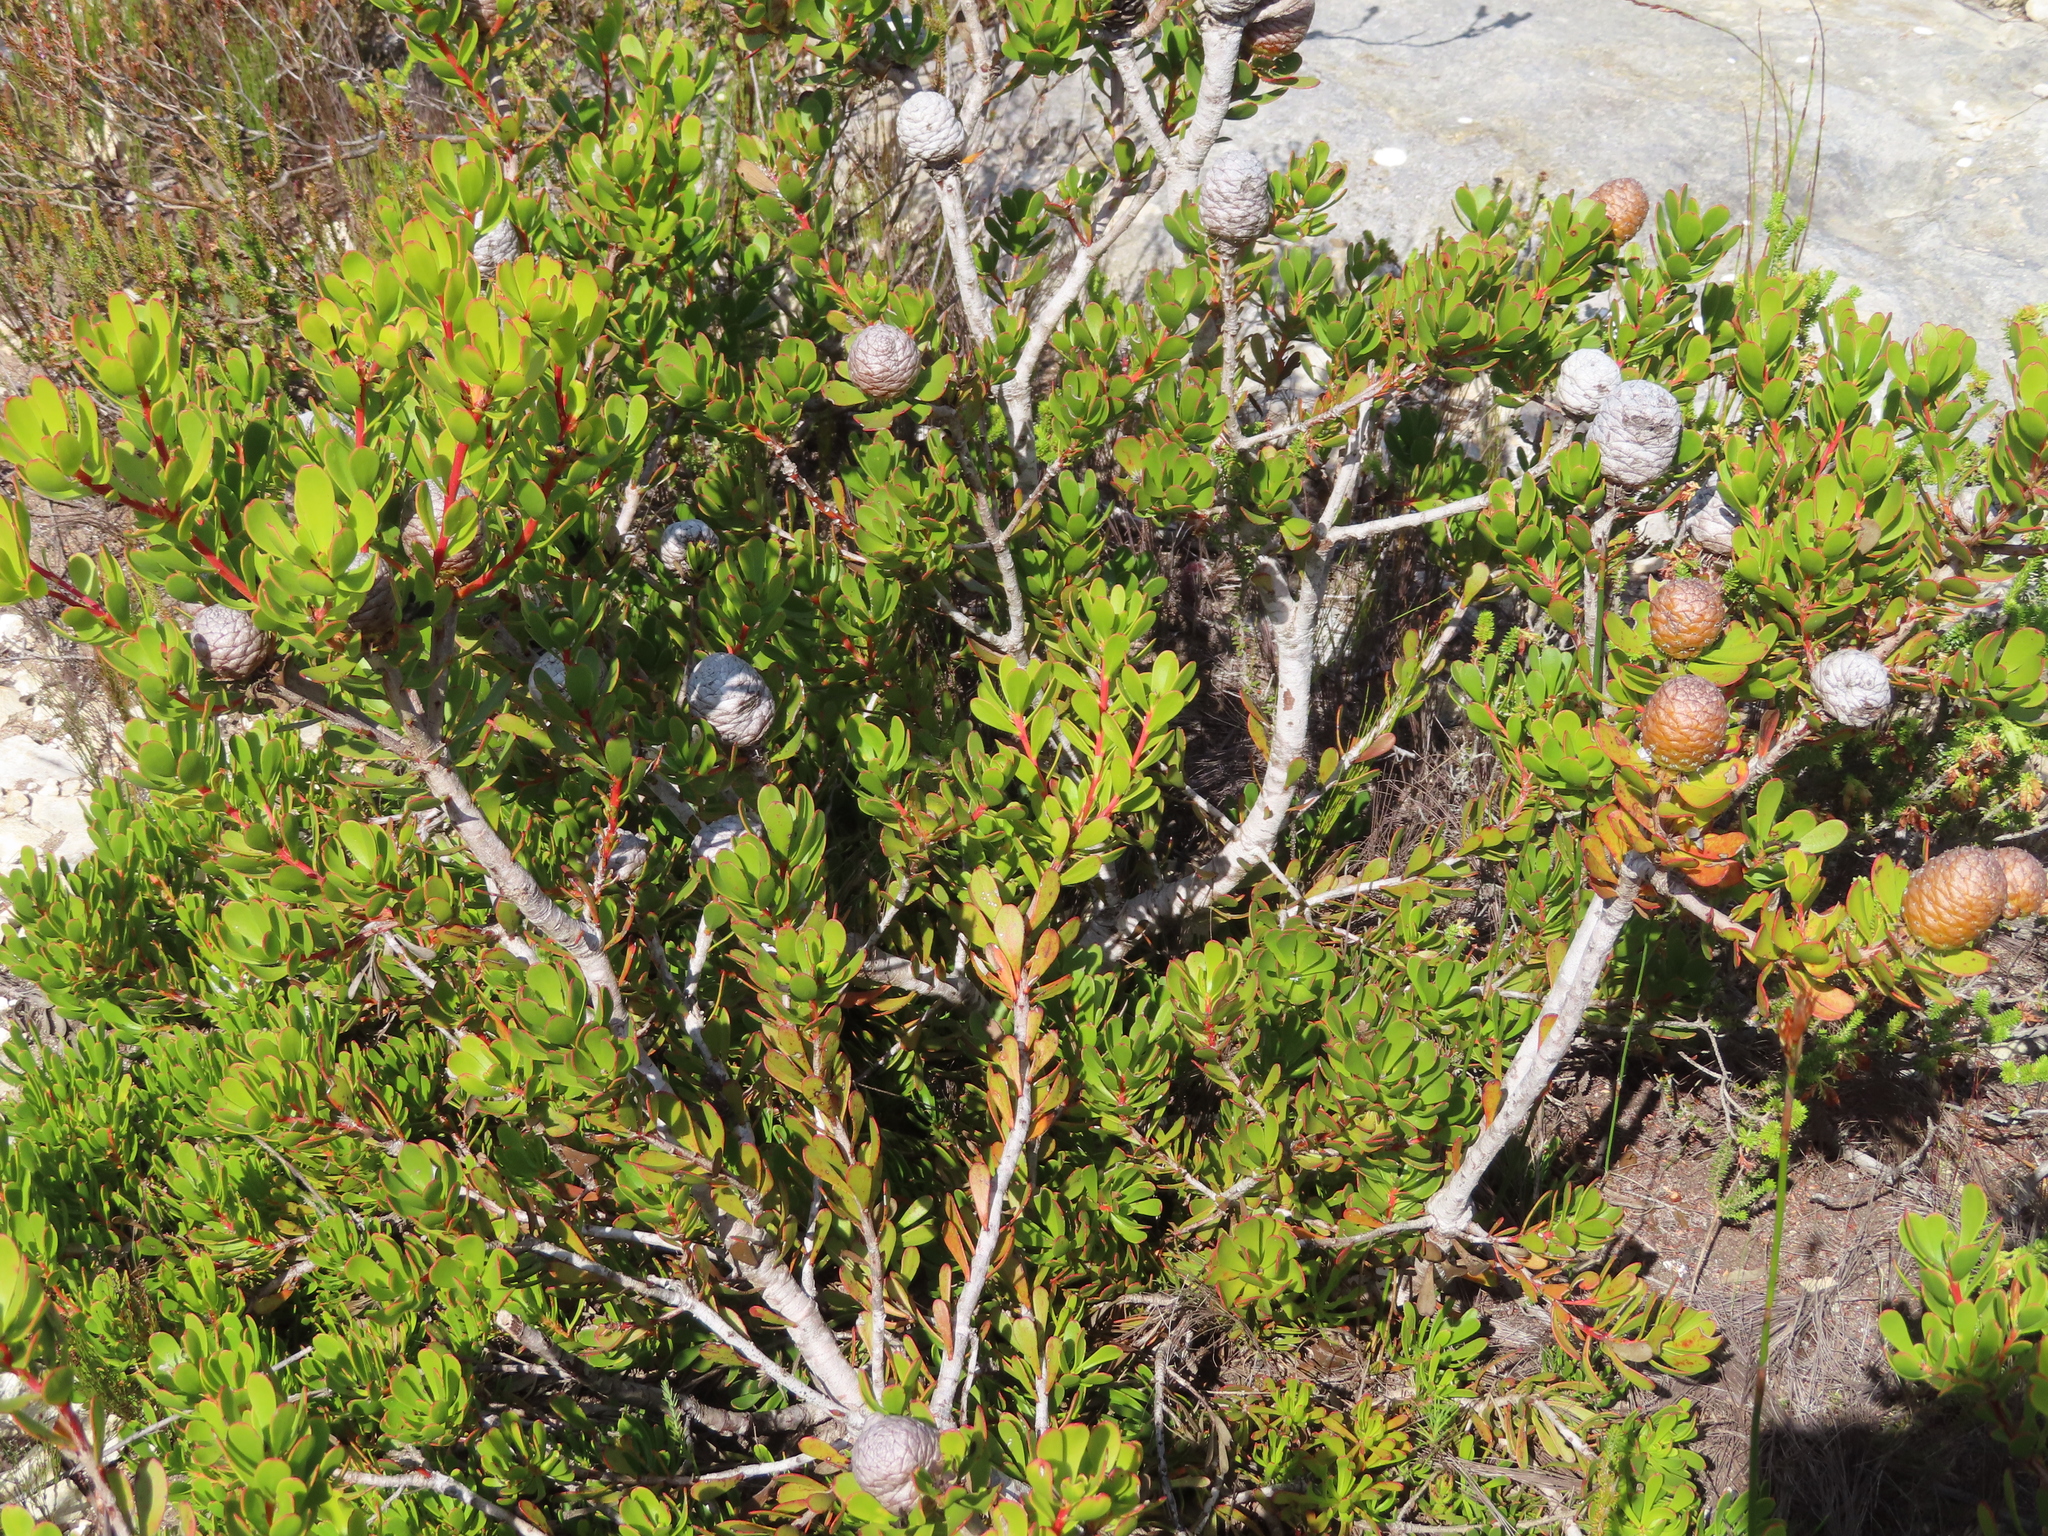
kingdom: Plantae
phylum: Tracheophyta
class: Magnoliopsida
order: Proteales
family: Proteaceae
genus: Leucadendron
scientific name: Leucadendron muirii
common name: Silver-ball conebush
